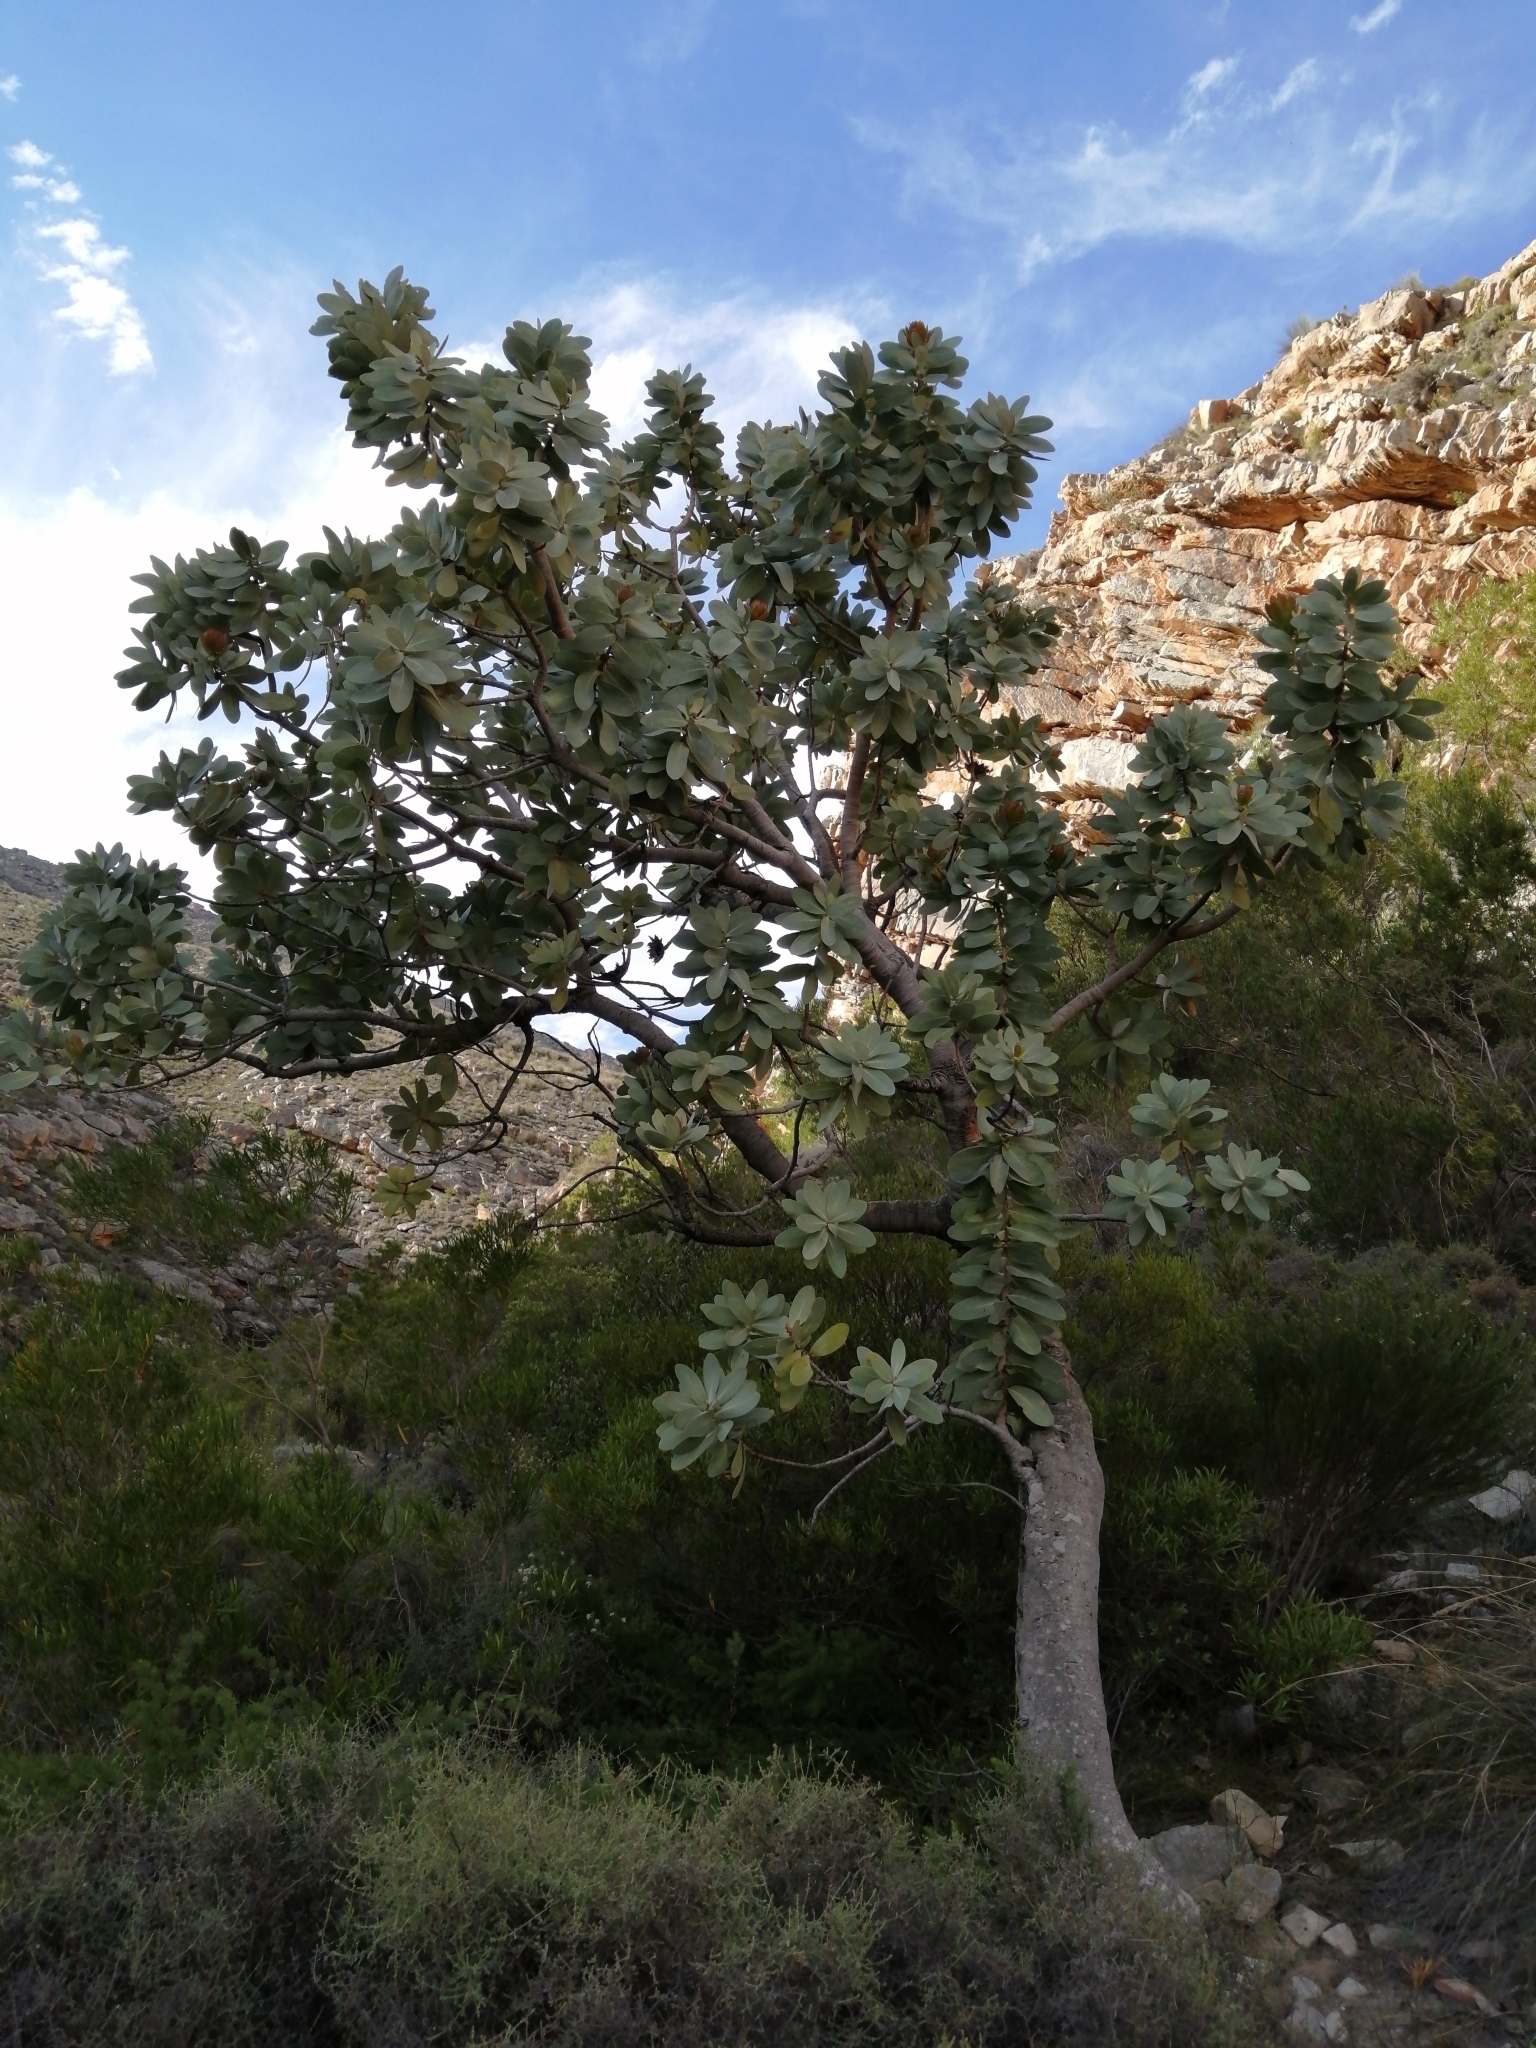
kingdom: Plantae
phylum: Tracheophyta
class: Magnoliopsida
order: Proteales
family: Proteaceae
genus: Protea
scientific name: Protea nitida
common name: Tree protea
